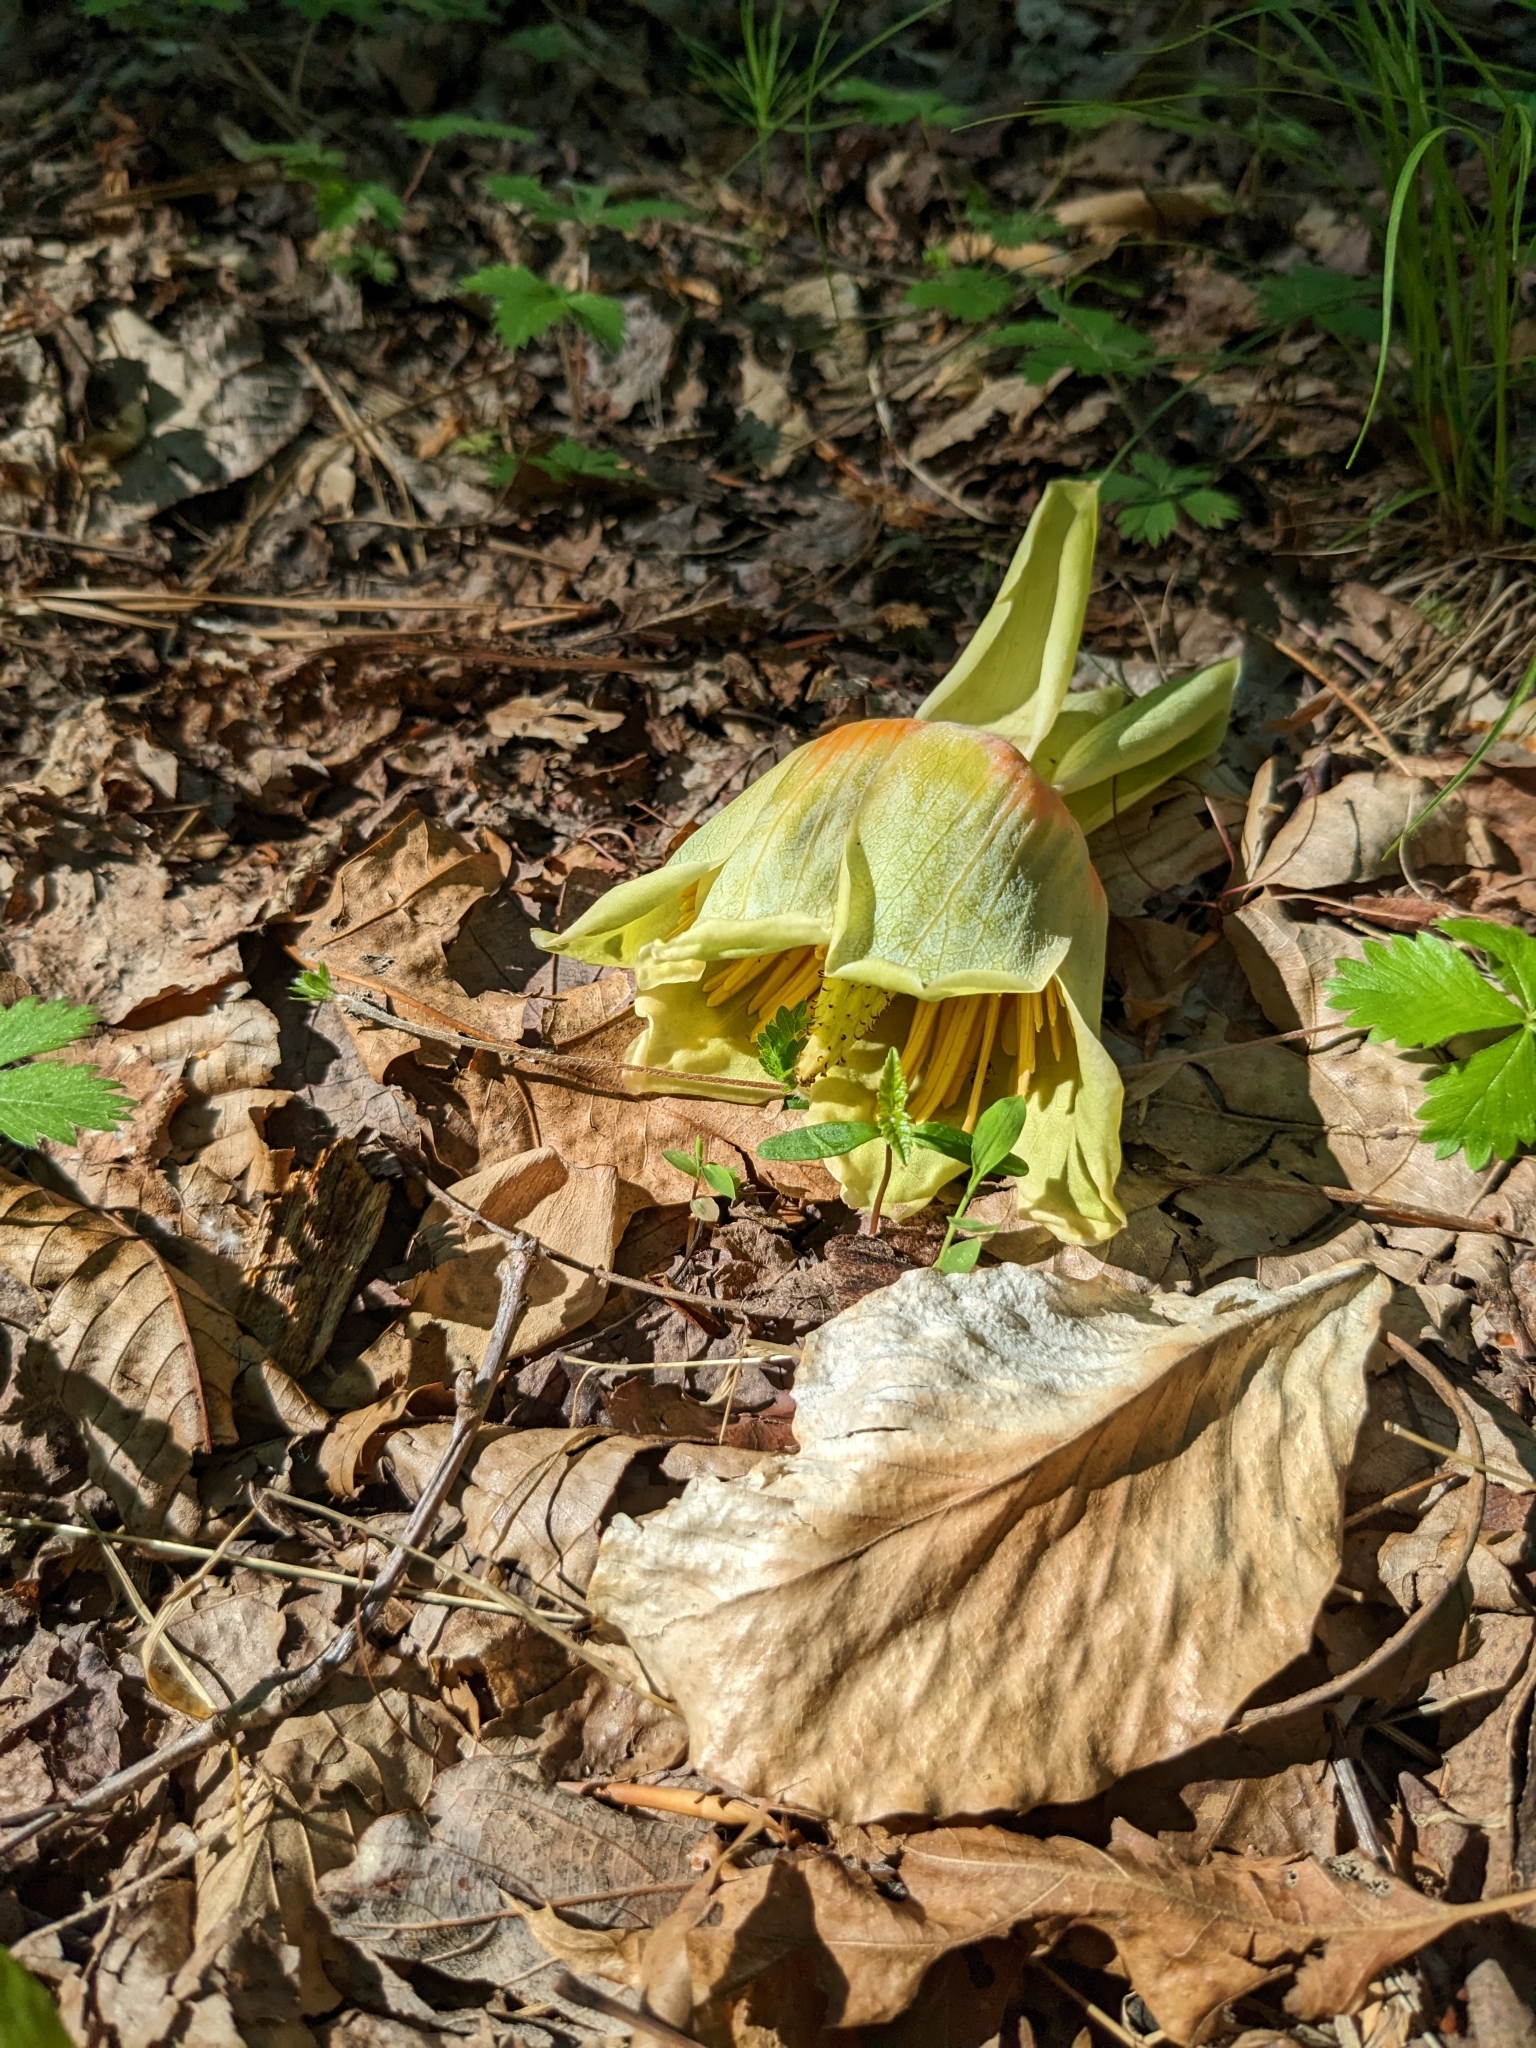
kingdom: Plantae
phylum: Tracheophyta
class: Magnoliopsida
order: Magnoliales
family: Magnoliaceae
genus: Liriodendron
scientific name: Liriodendron tulipifera
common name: Tulip tree
